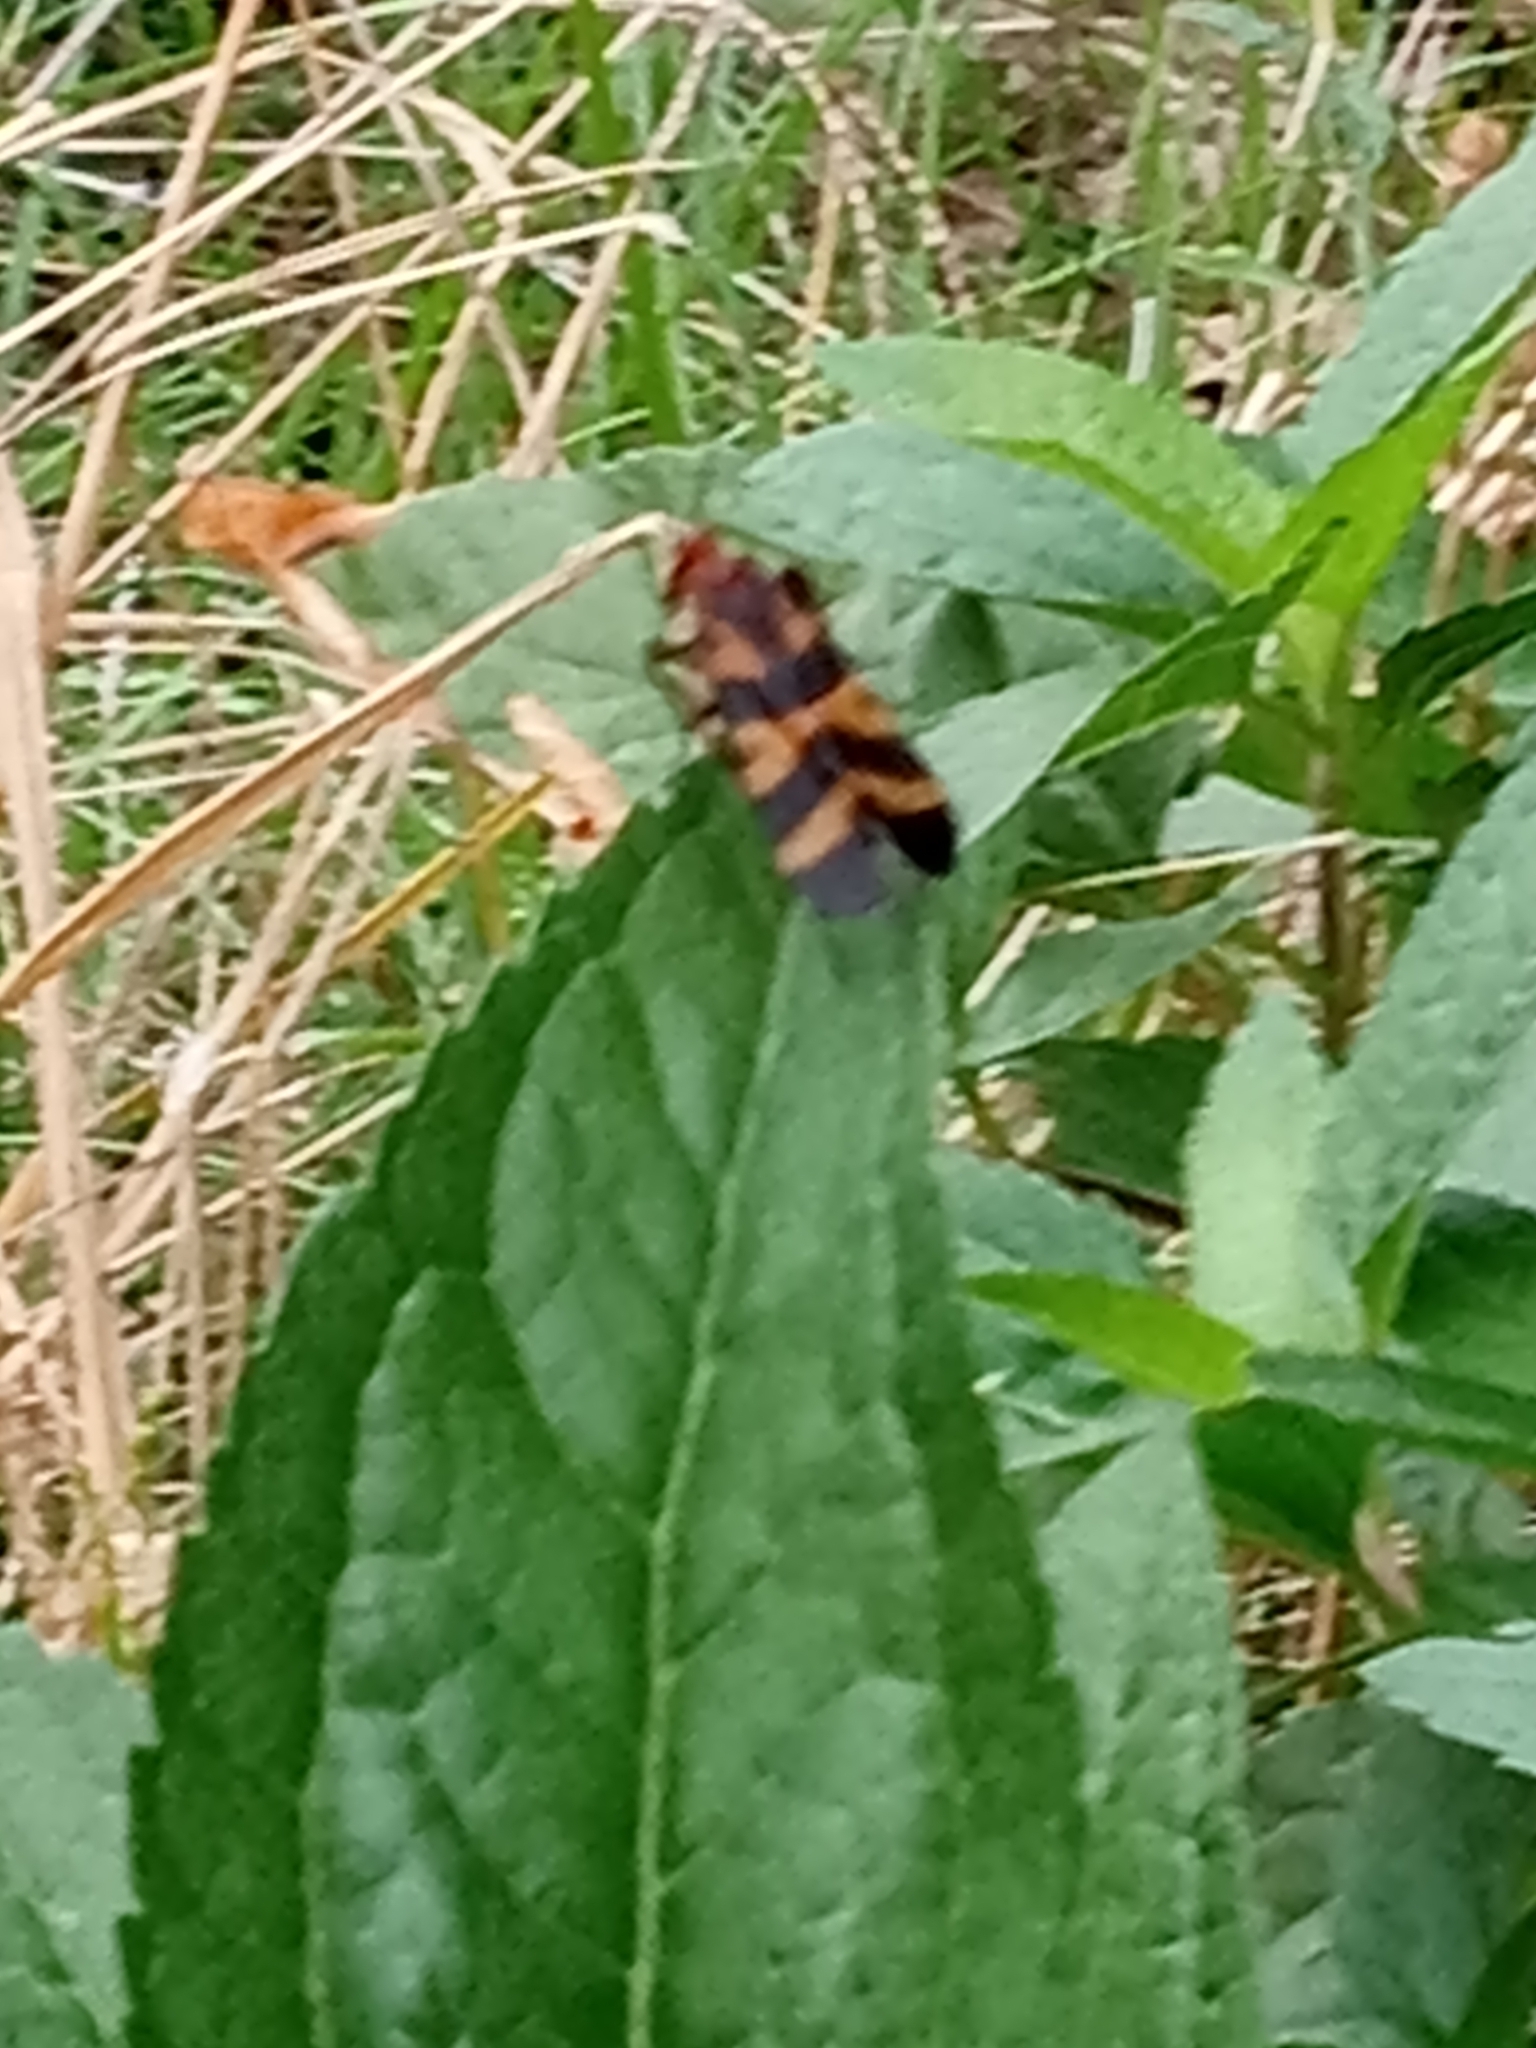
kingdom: Animalia
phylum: Arthropoda
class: Insecta
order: Mecoptera
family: Panorpidae
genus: Panorpa
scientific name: Panorpa nuptialis
